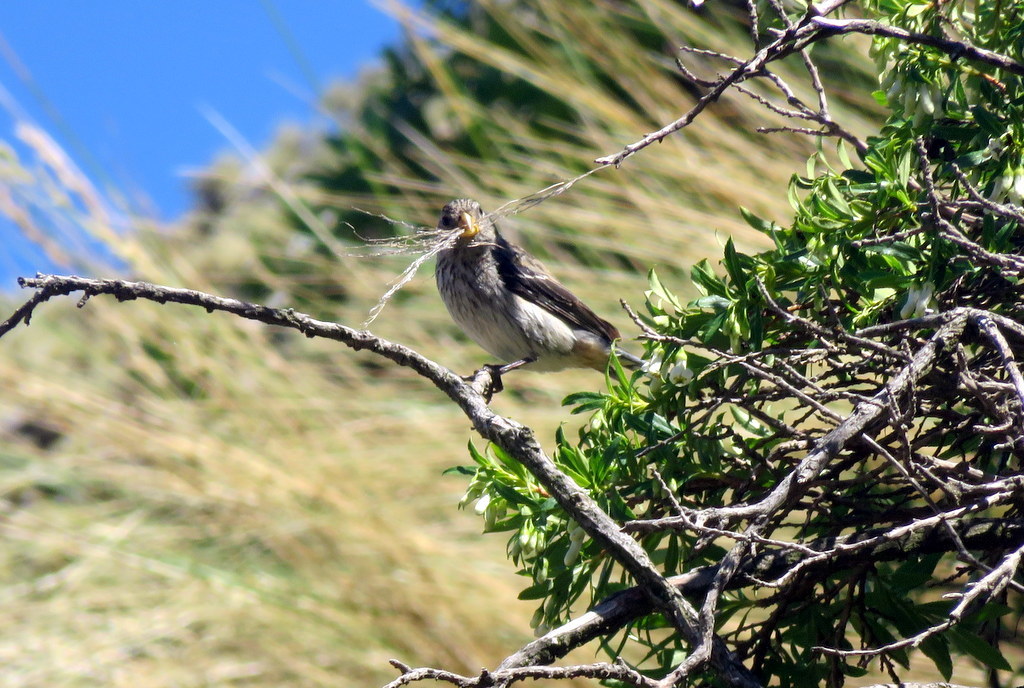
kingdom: Animalia
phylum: Chordata
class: Aves
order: Passeriformes
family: Thraupidae
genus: Catamenia
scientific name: Catamenia analis
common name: Band-tailed seedeater
